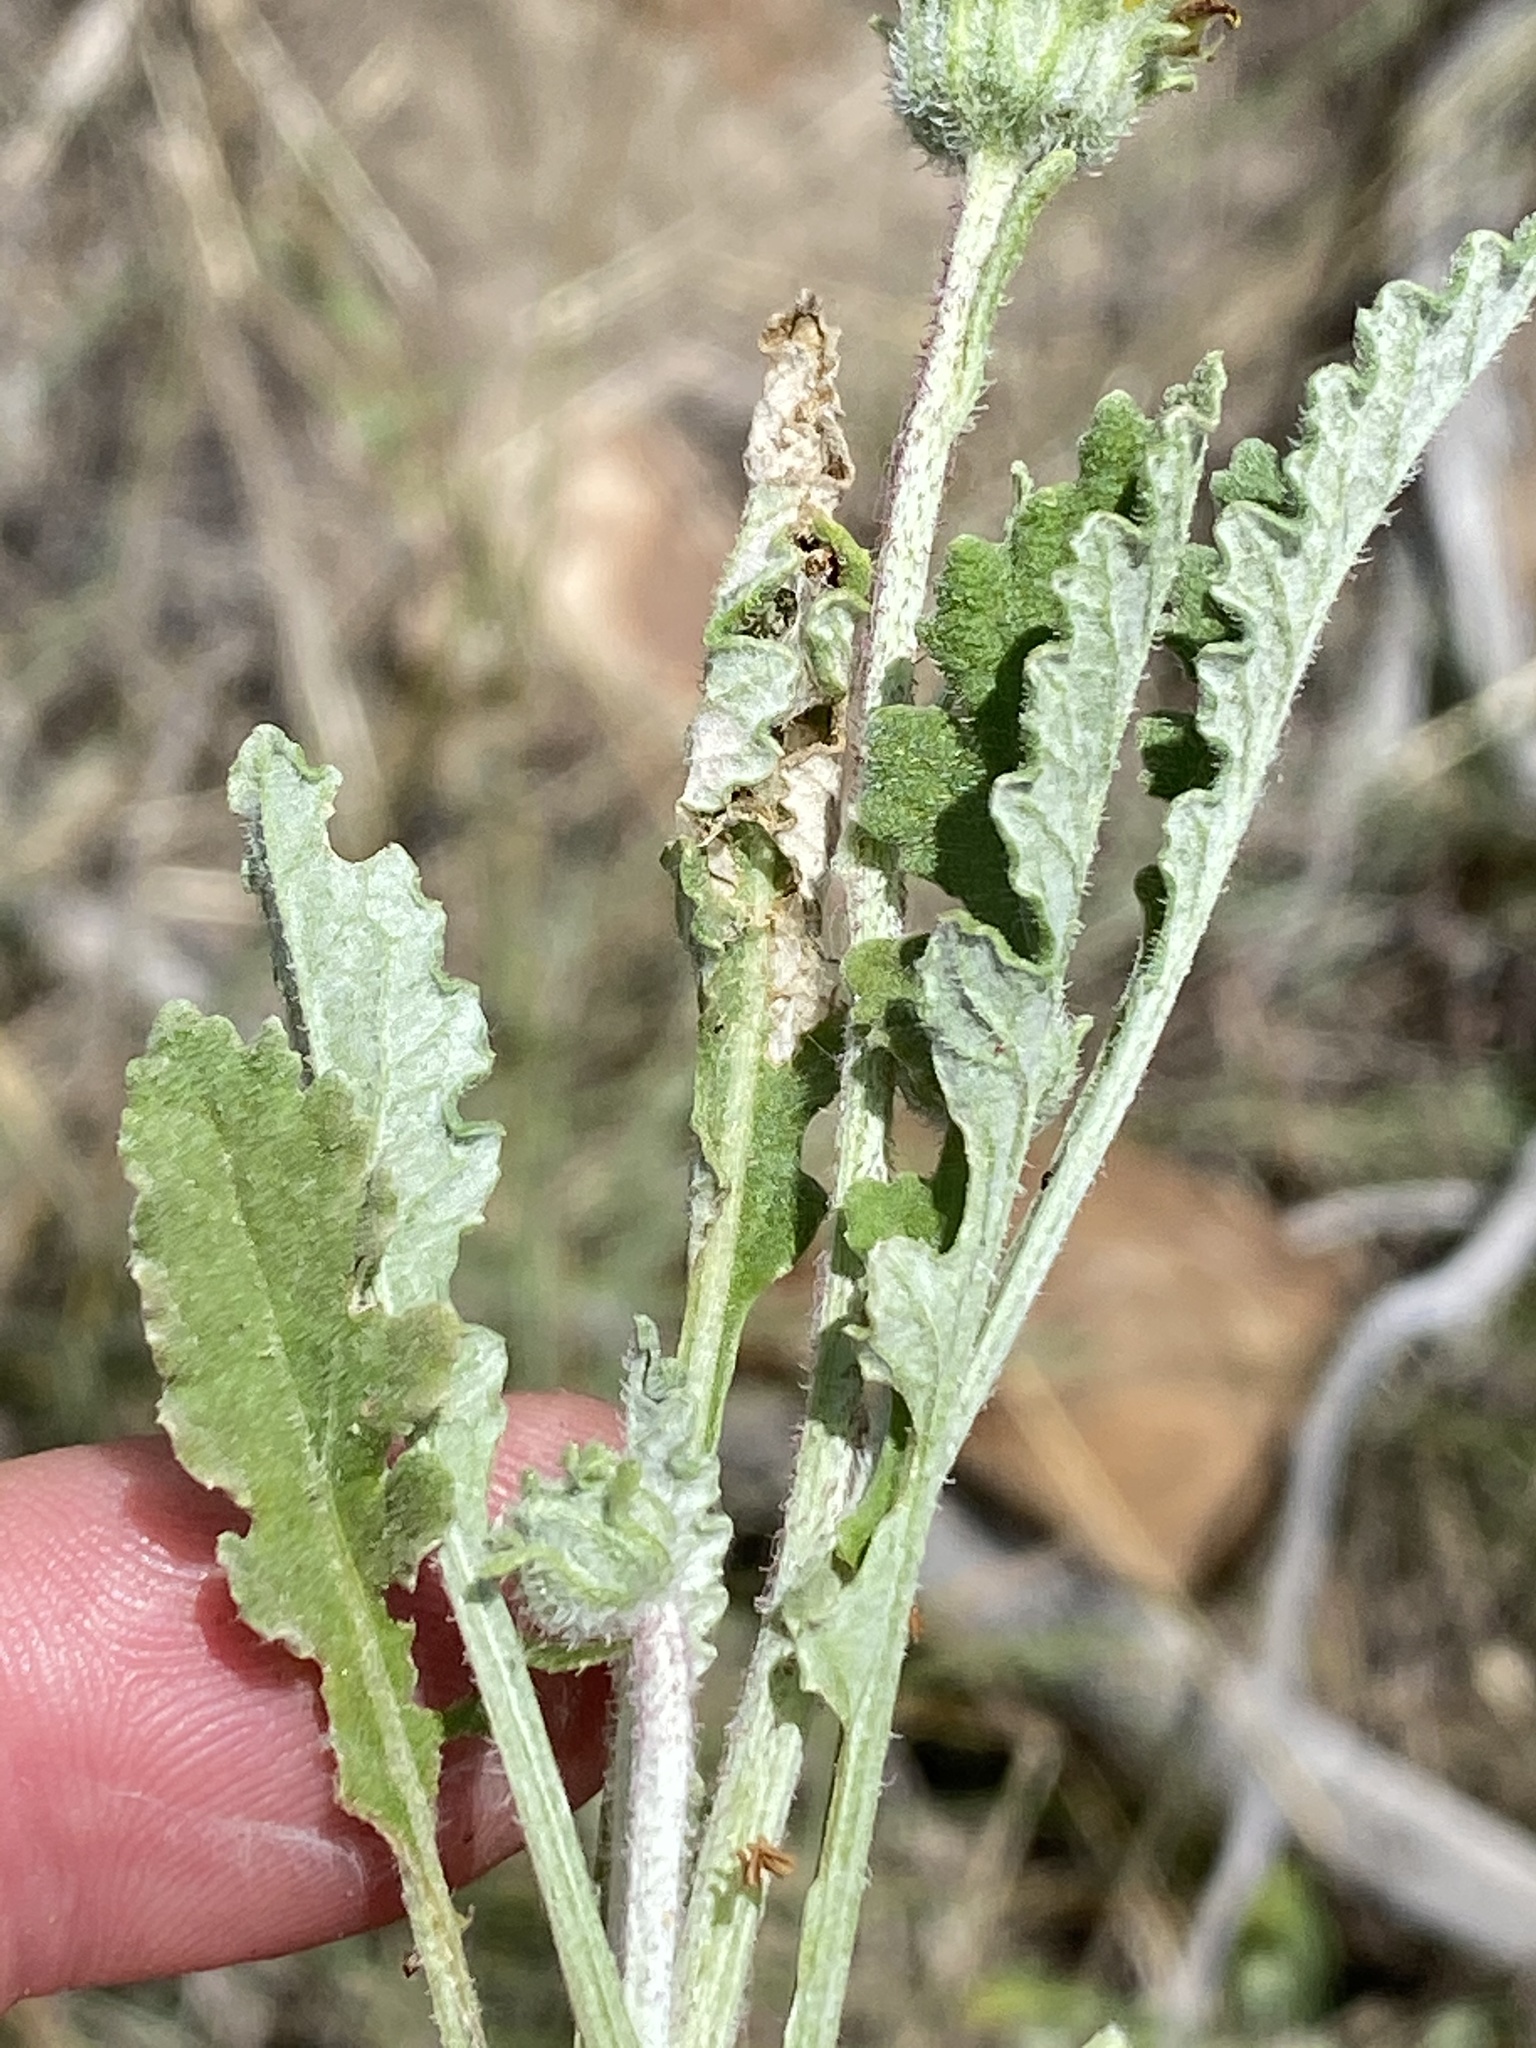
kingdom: Plantae
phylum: Tracheophyta
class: Magnoliopsida
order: Asterales
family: Asteraceae
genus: Arctotis
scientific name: Arctotis arctotoides
